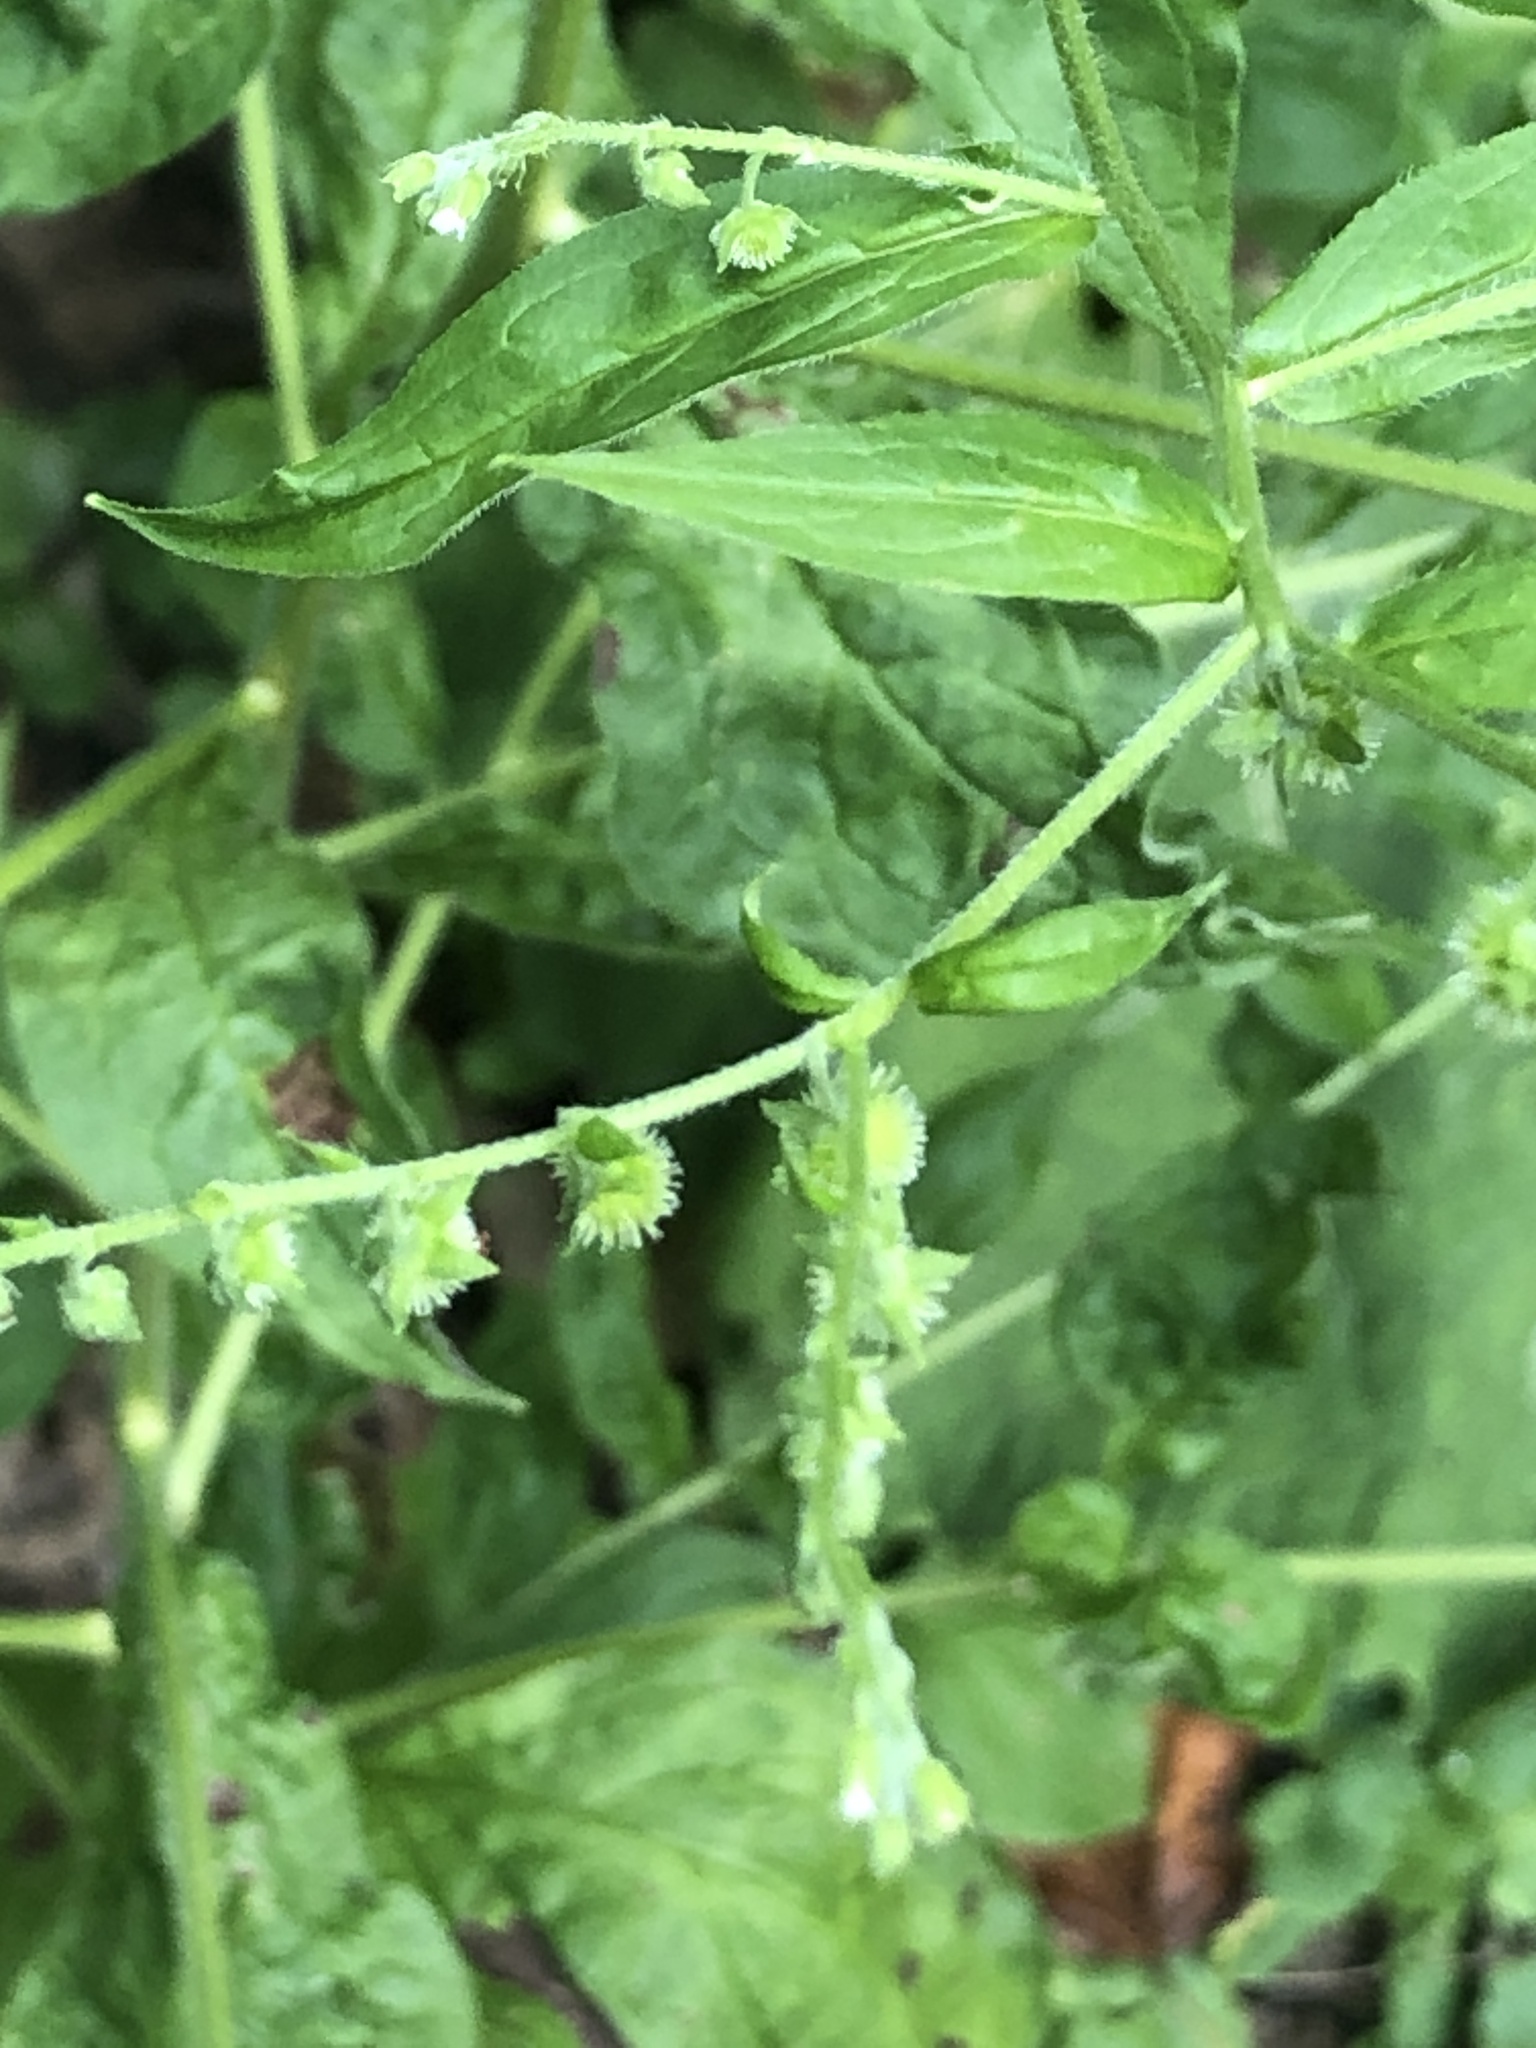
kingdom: Plantae
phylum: Tracheophyta
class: Magnoliopsida
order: Boraginales
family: Boraginaceae
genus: Hackelia
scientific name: Hackelia virginiana
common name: Beggar's-lice
